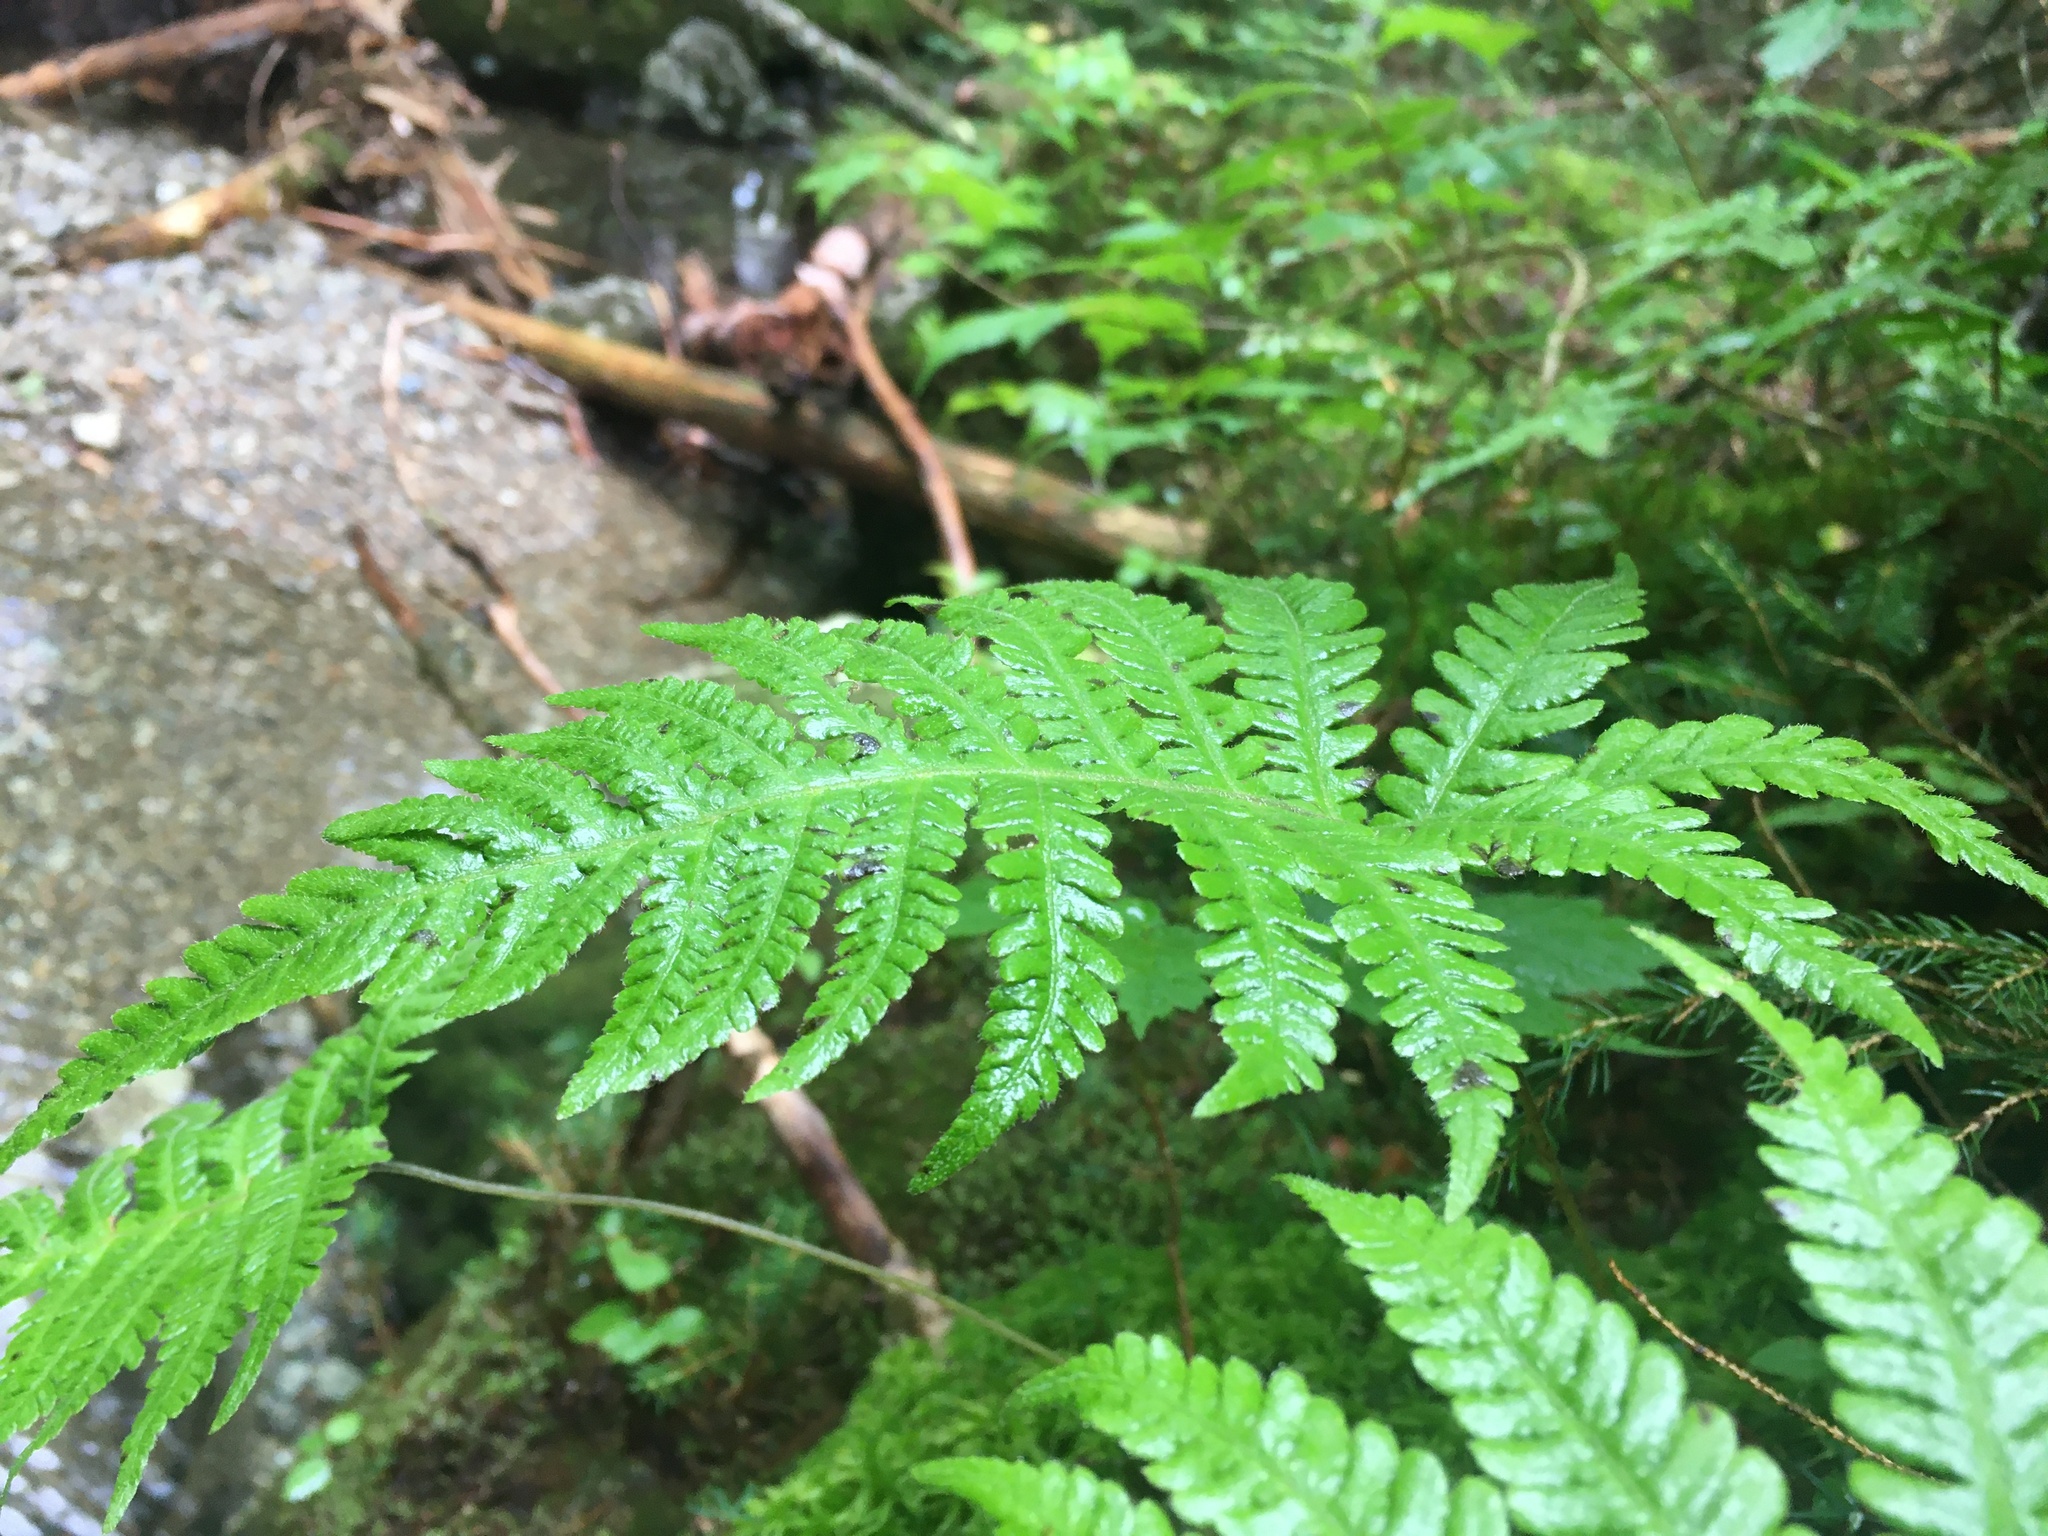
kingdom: Plantae
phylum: Tracheophyta
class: Polypodiopsida
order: Polypodiales
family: Thelypteridaceae
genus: Phegopteris
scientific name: Phegopteris connectilis
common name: Beech fern
